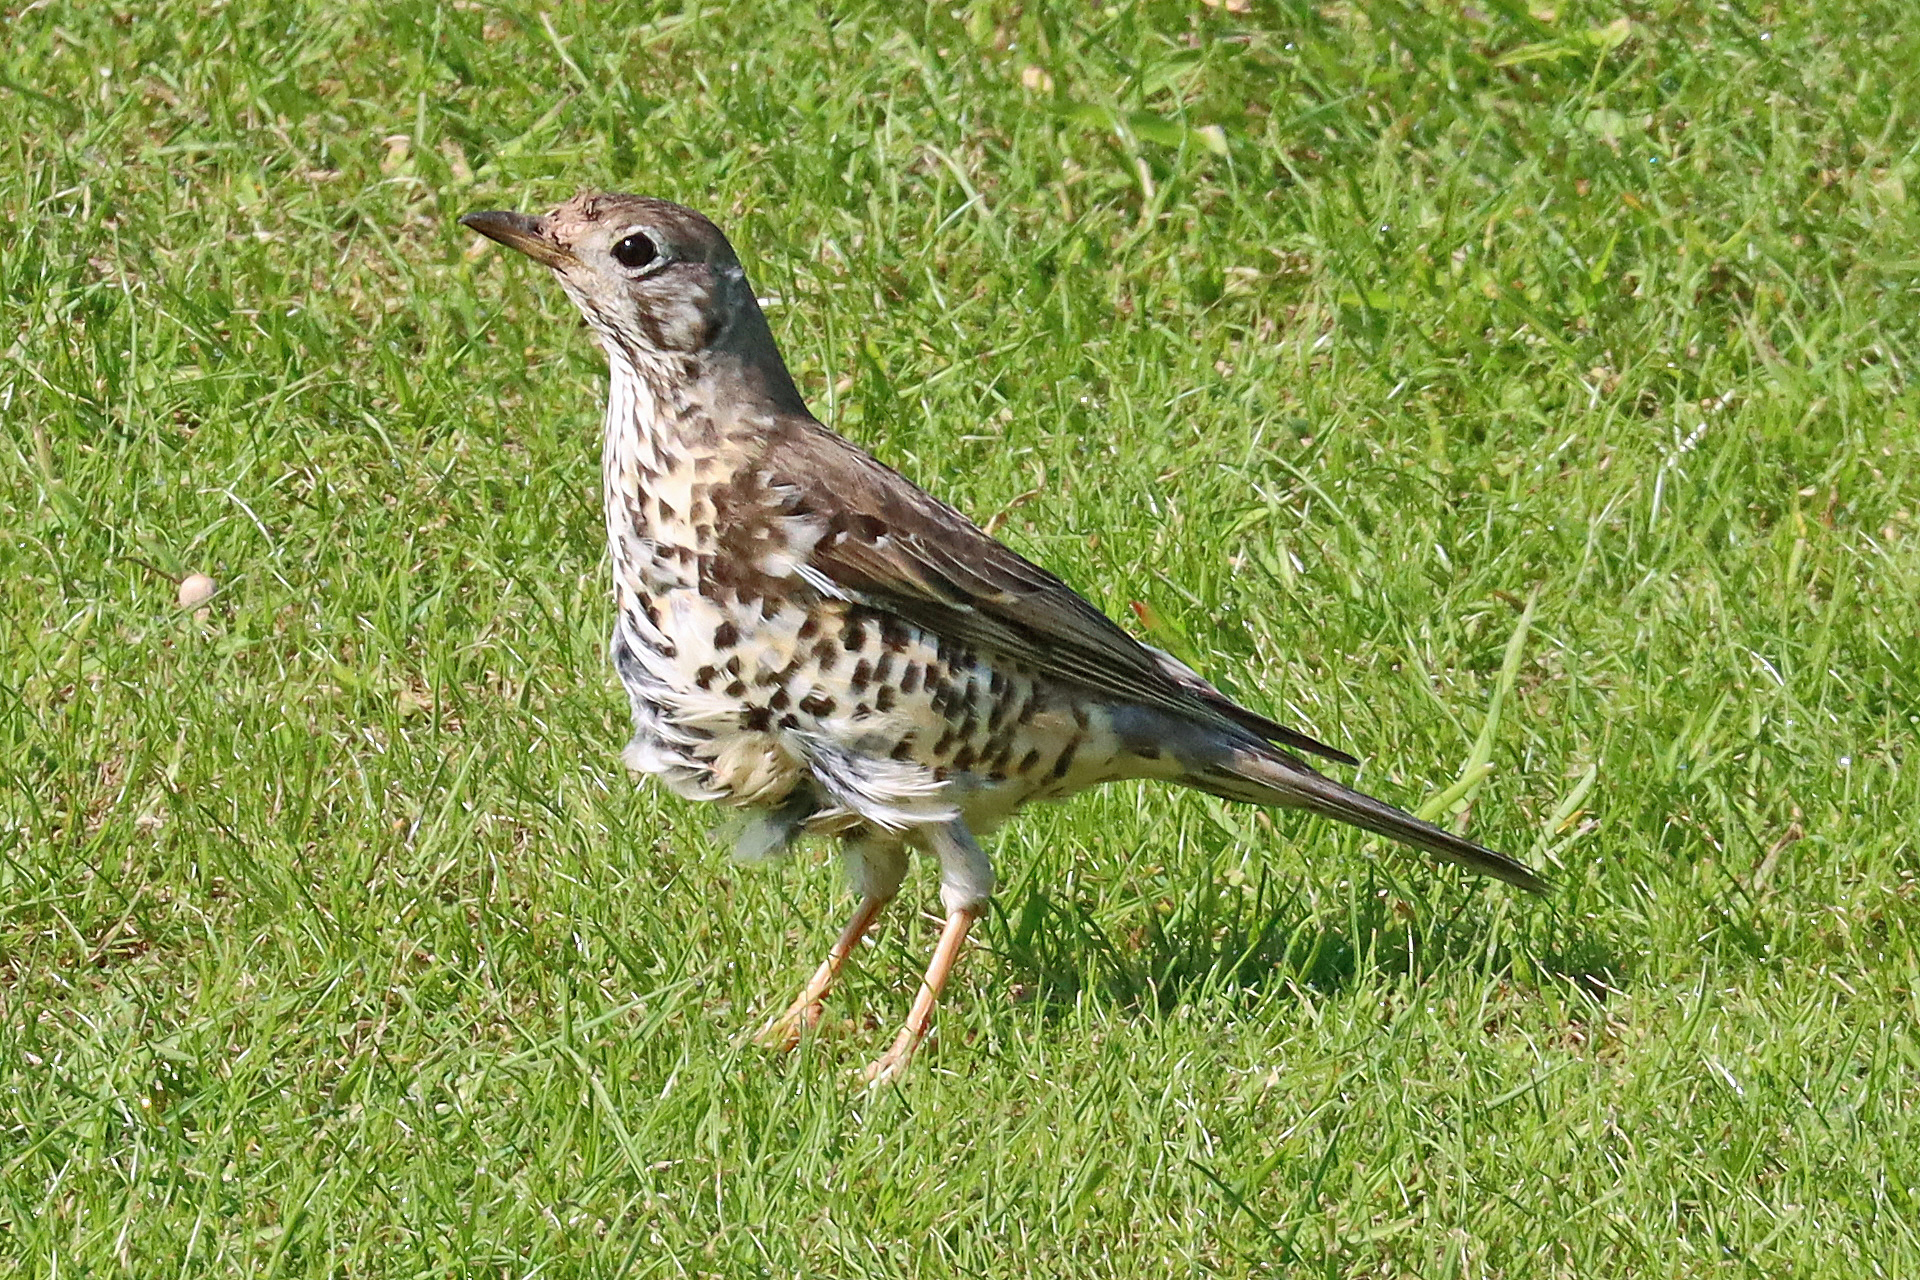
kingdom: Animalia
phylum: Chordata
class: Aves
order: Passeriformes
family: Turdidae
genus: Turdus
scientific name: Turdus viscivorus
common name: Mistle thrush
